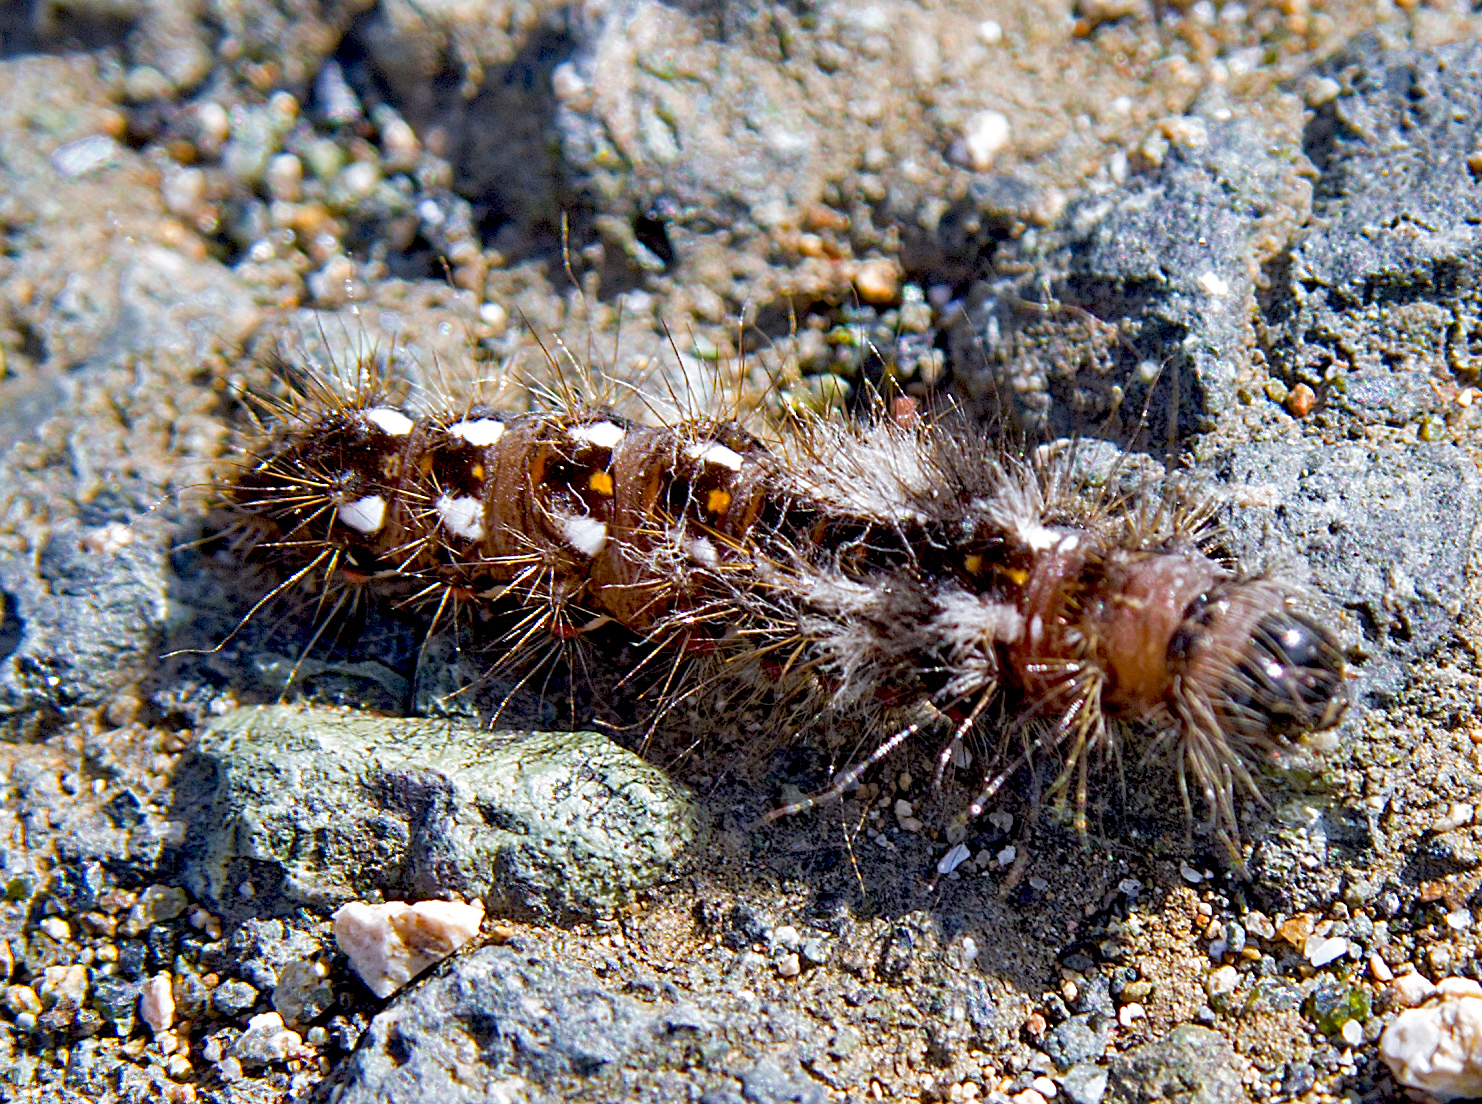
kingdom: Animalia
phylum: Arthropoda
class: Insecta
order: Lepidoptera
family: Noctuidae
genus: Acronicta
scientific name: Acronicta rumicis
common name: Knot grass
